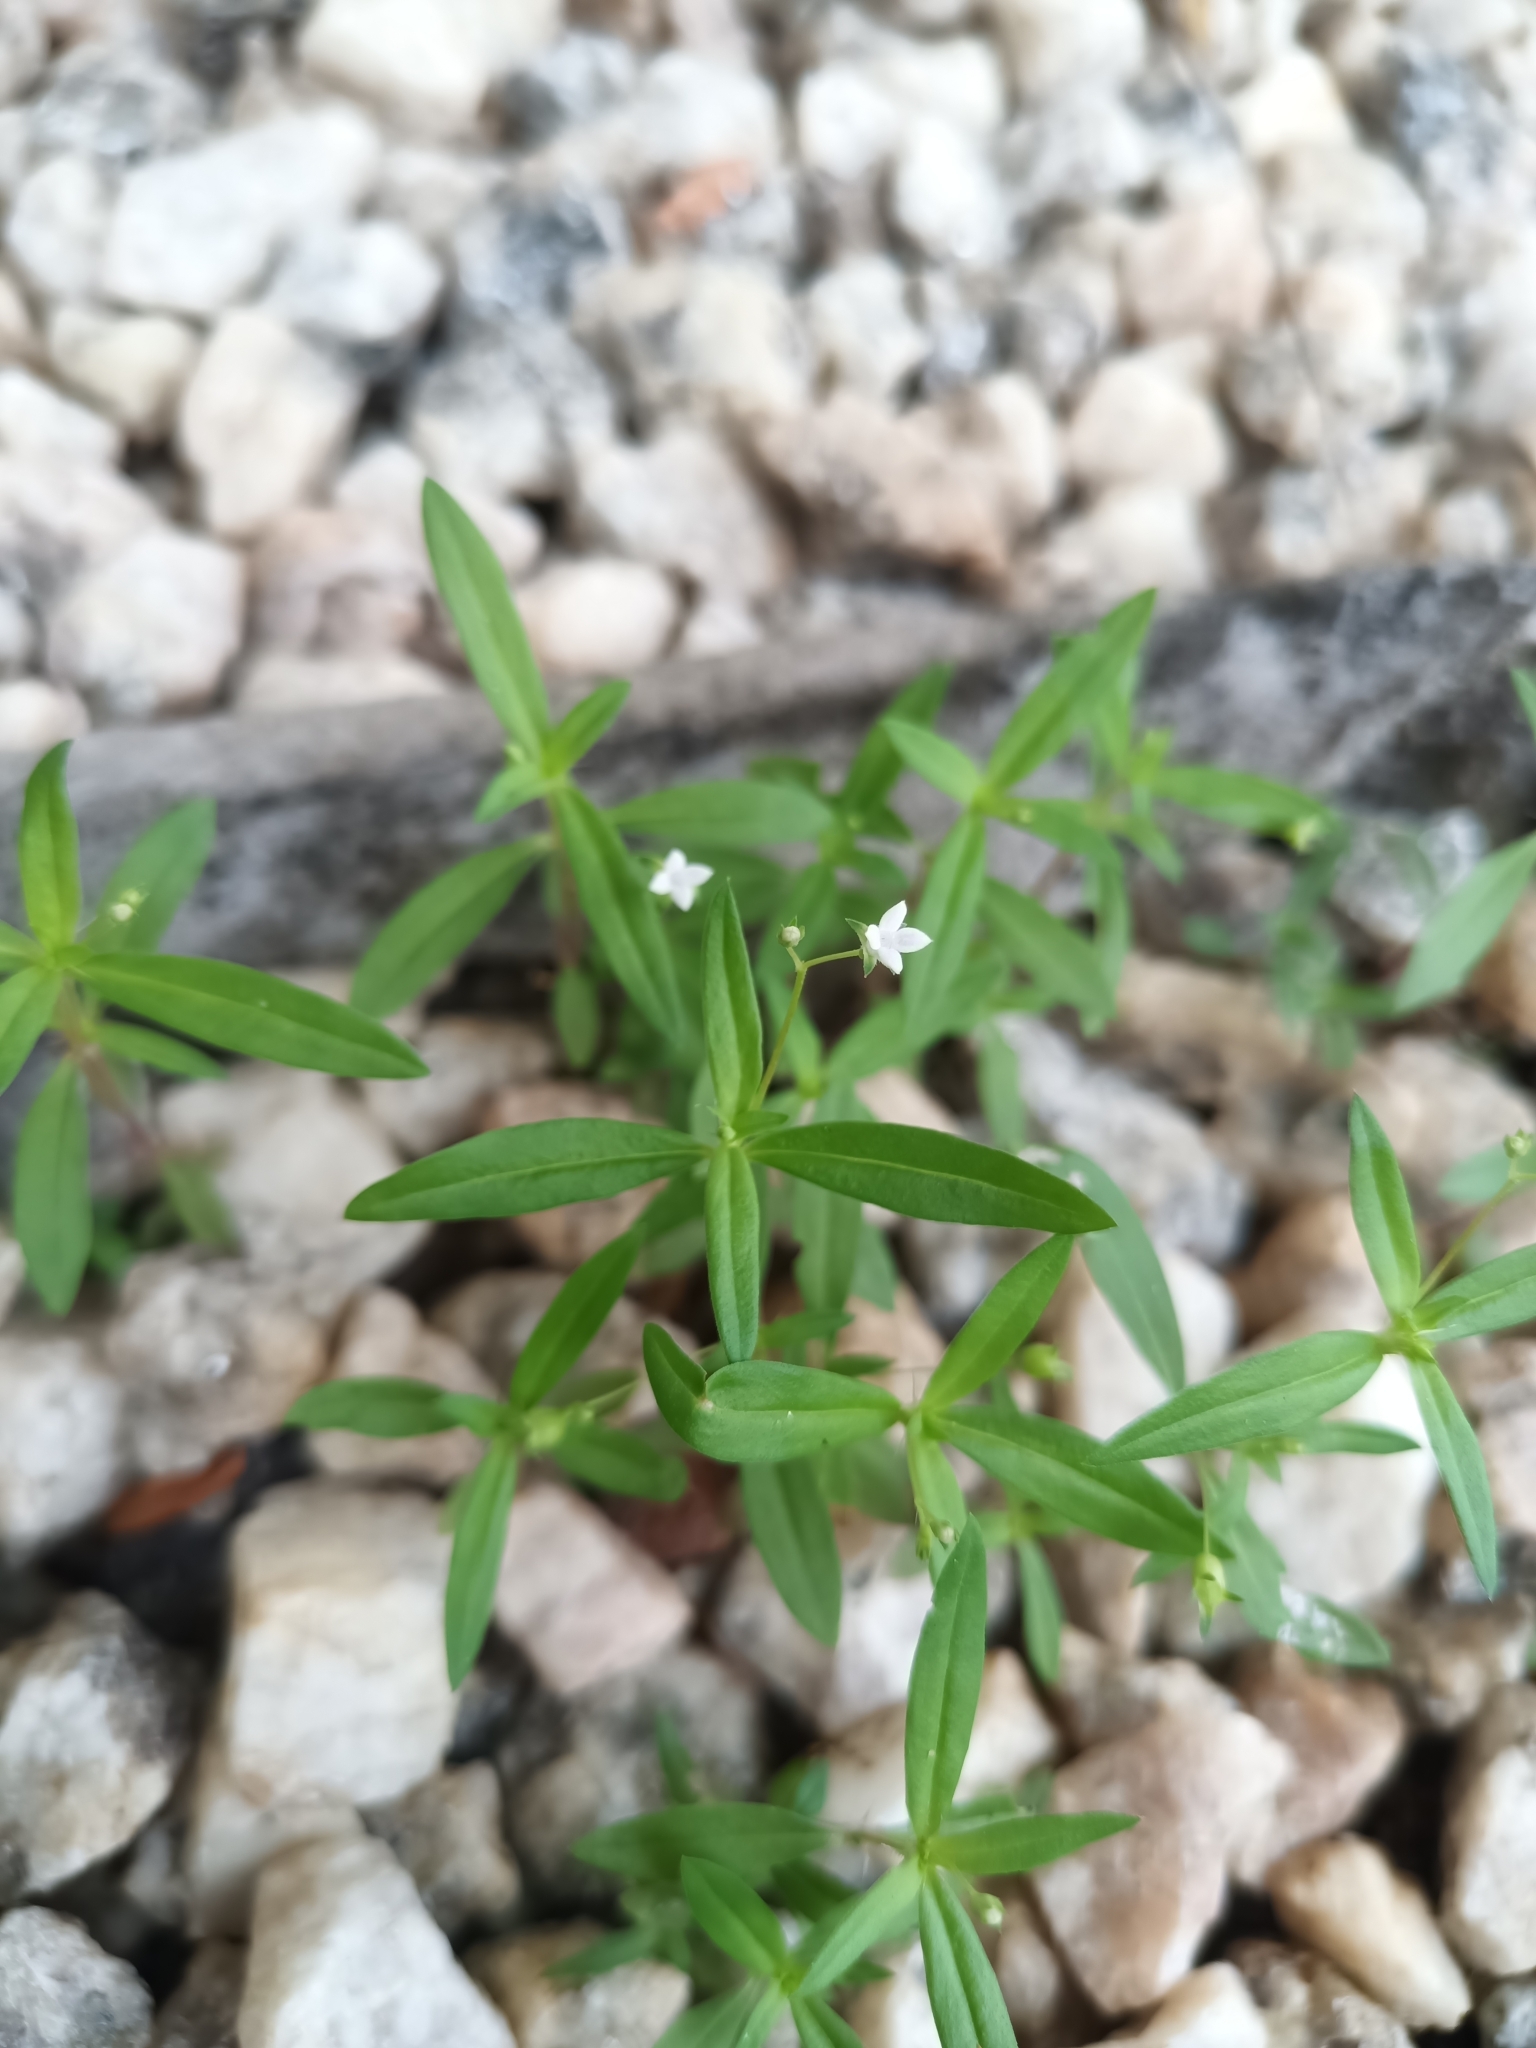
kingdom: Plantae
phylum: Tracheophyta
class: Magnoliopsida
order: Gentianales
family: Rubiaceae
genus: Oldenlandia
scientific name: Oldenlandia corymbosa
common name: Flat-top mille graines
